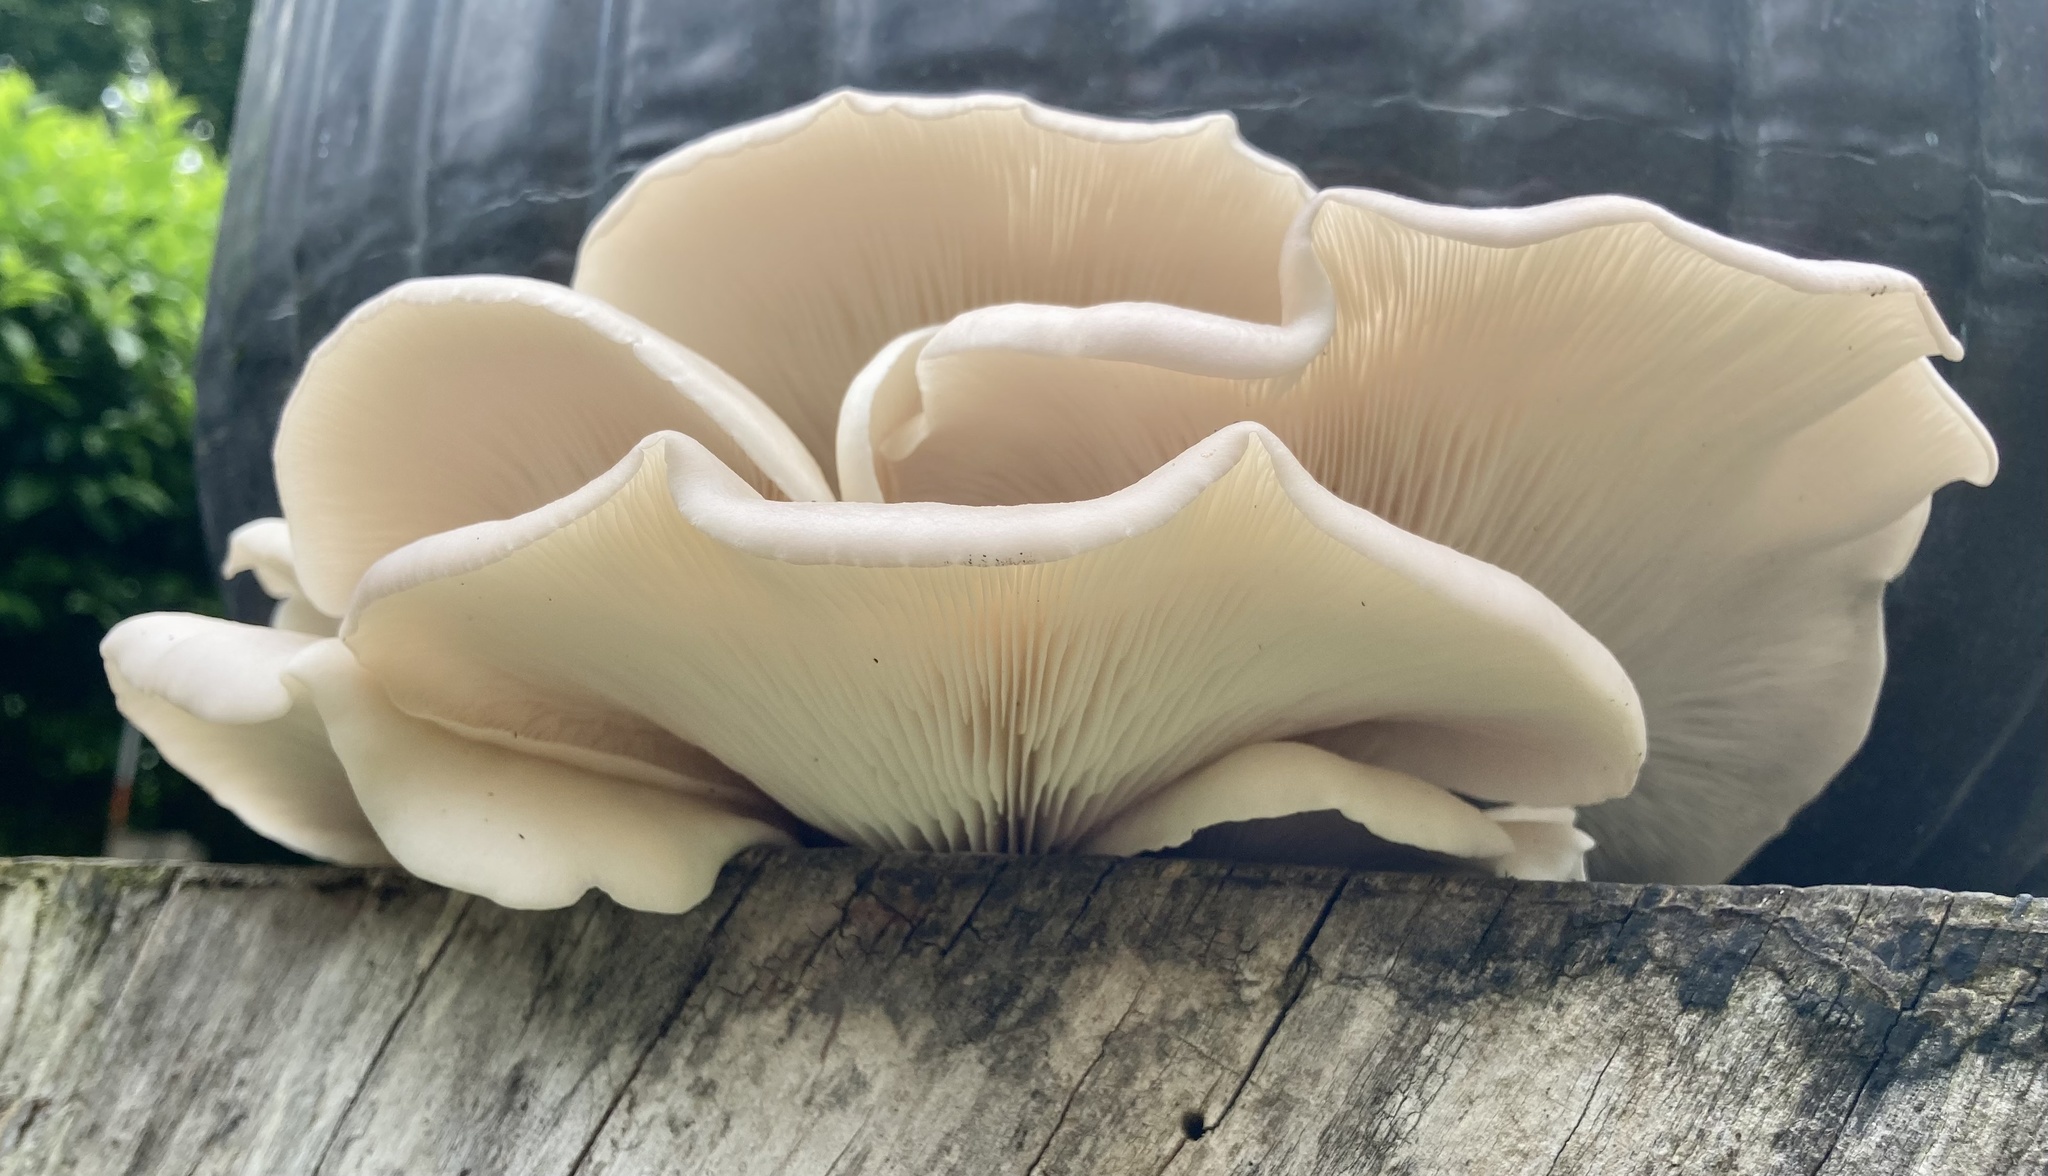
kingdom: Fungi
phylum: Basidiomycota
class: Agaricomycetes
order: Agaricales
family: Pleurotaceae
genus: Pleurotus
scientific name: Pleurotus populinus
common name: Aspen oyster mushroom
